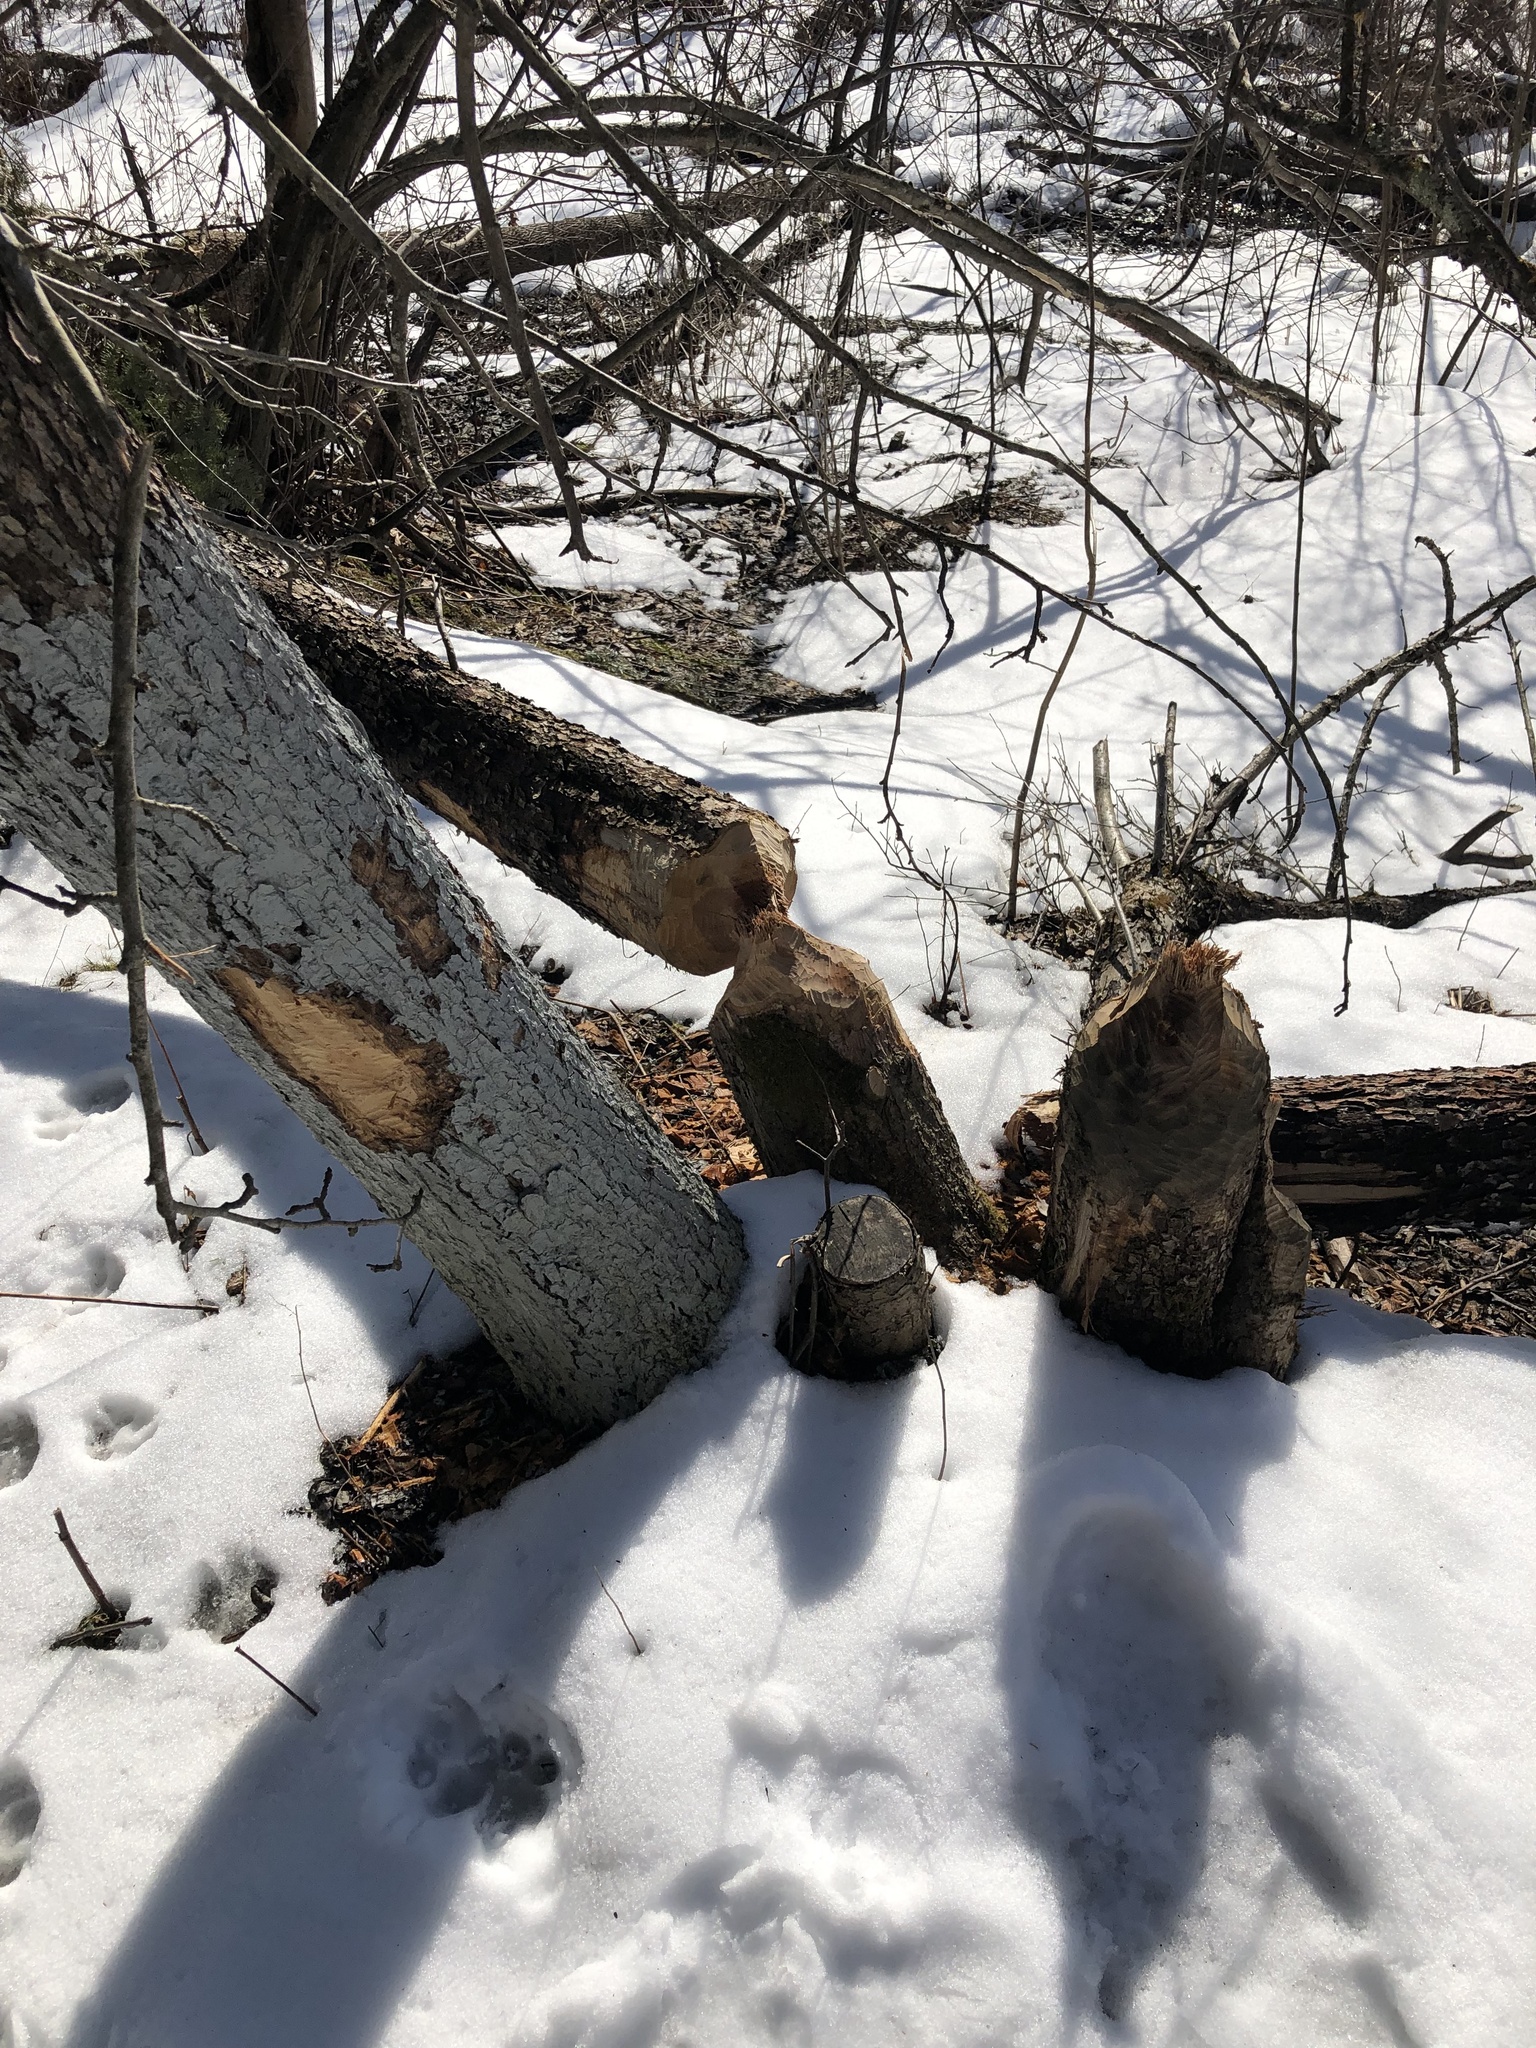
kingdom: Animalia
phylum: Chordata
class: Mammalia
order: Rodentia
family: Castoridae
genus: Castor
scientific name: Castor canadensis
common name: American beaver
